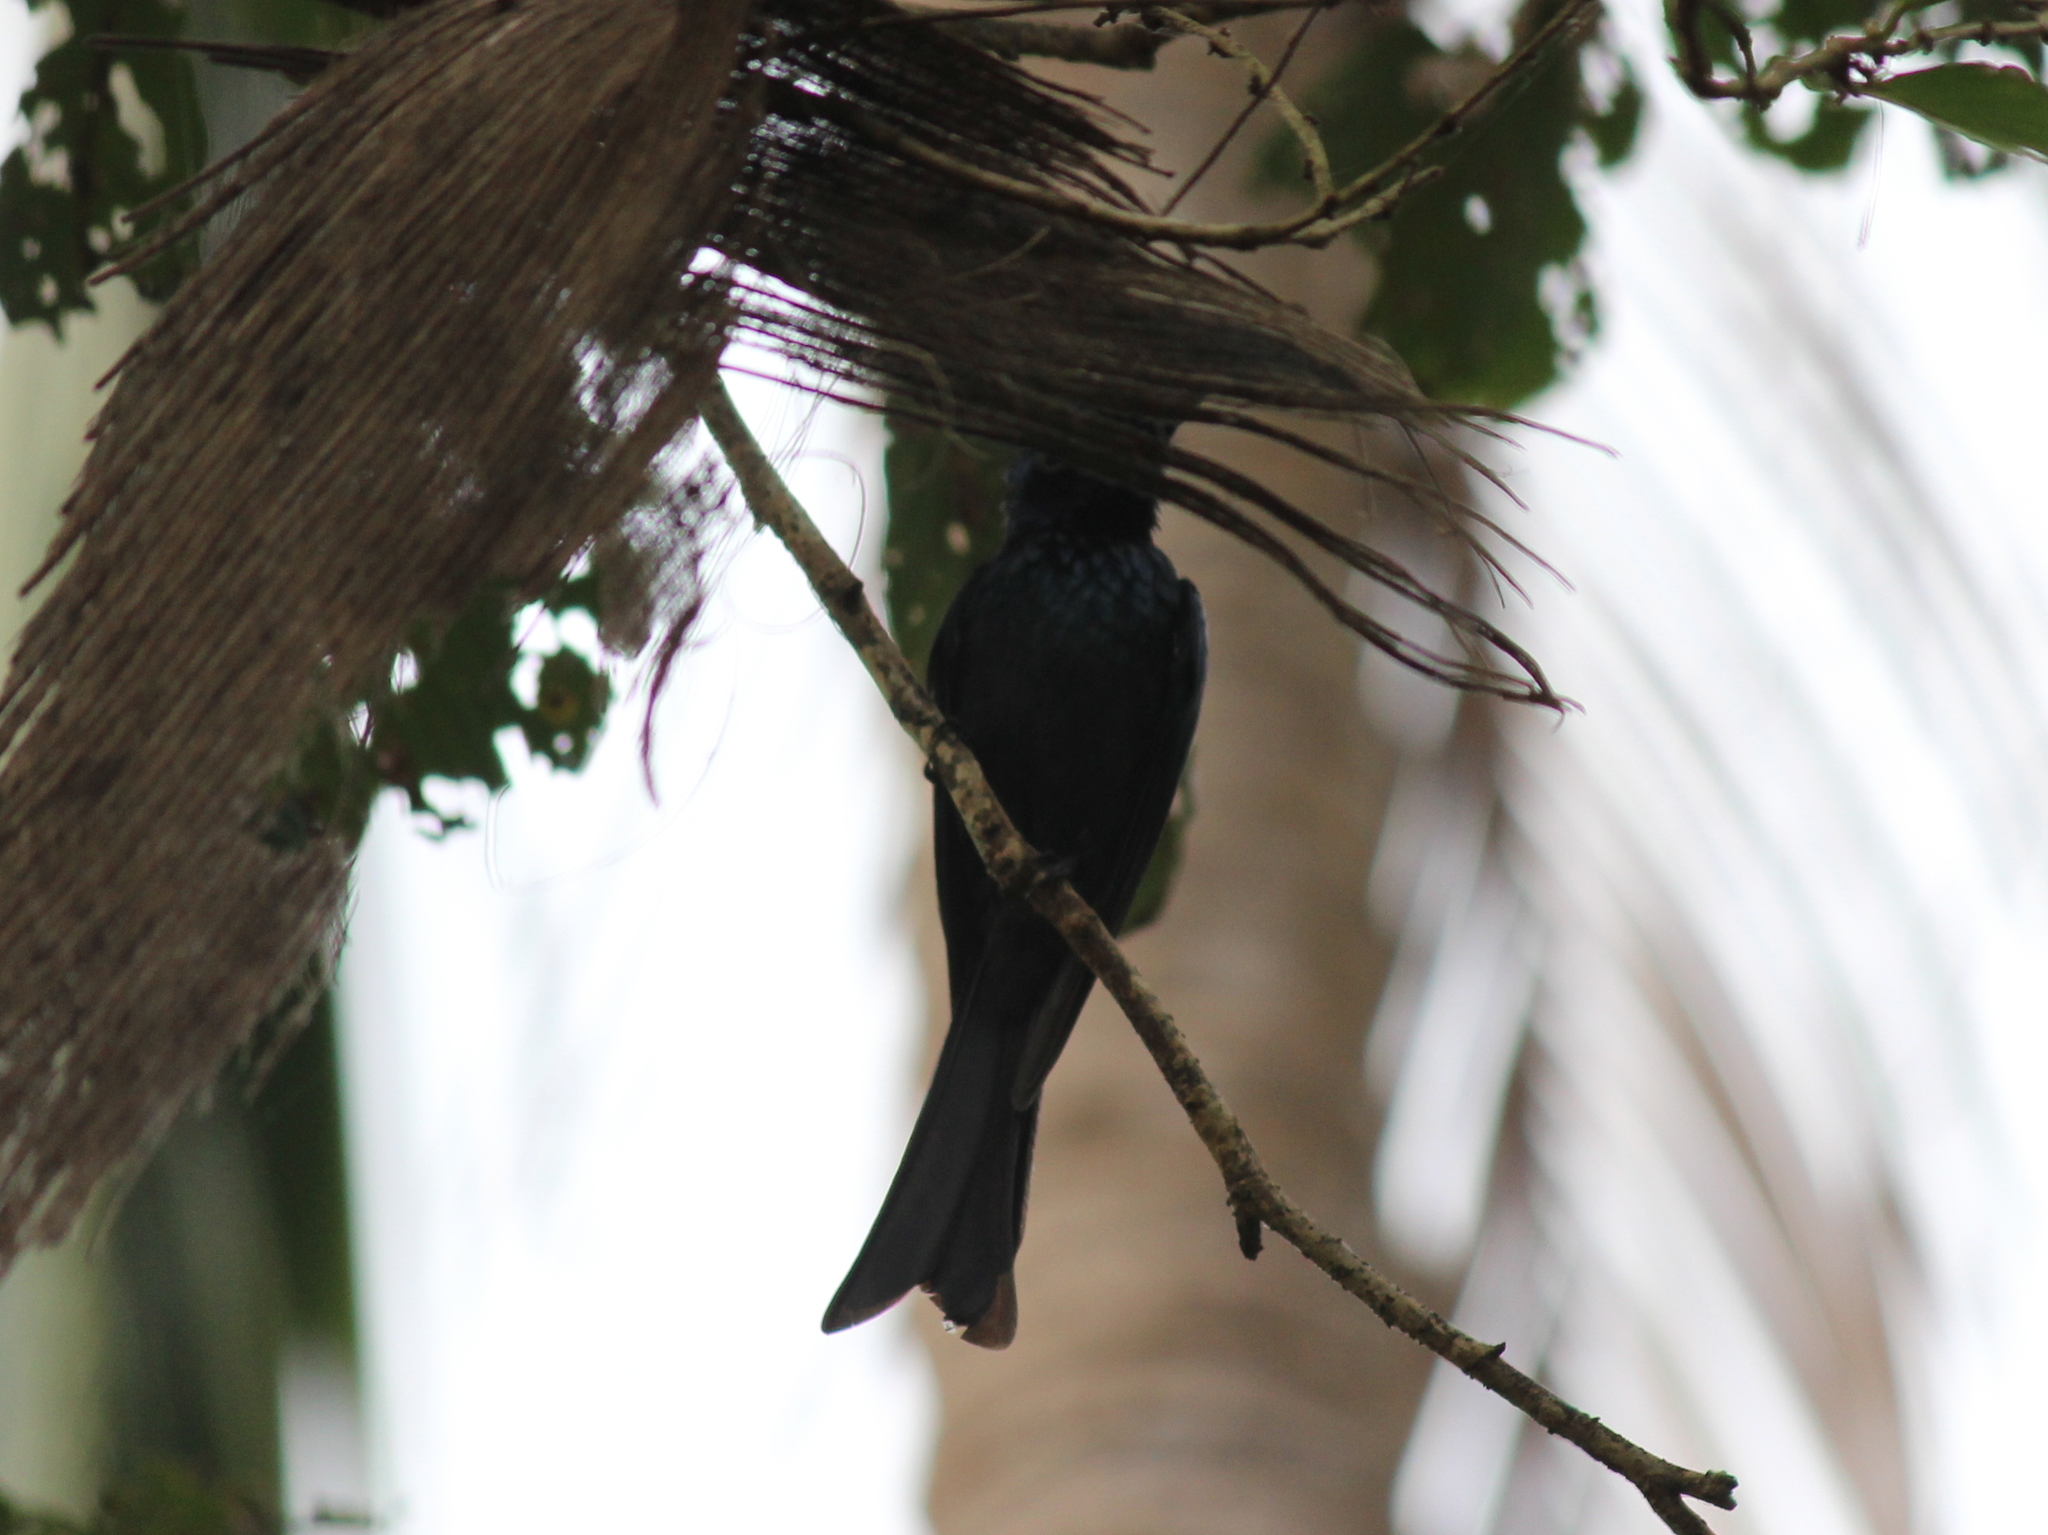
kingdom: Animalia
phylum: Chordata
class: Aves
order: Passeriformes
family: Dicruridae
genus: Dicrurus
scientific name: Dicrurus aeneus
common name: Bronzed drongo
